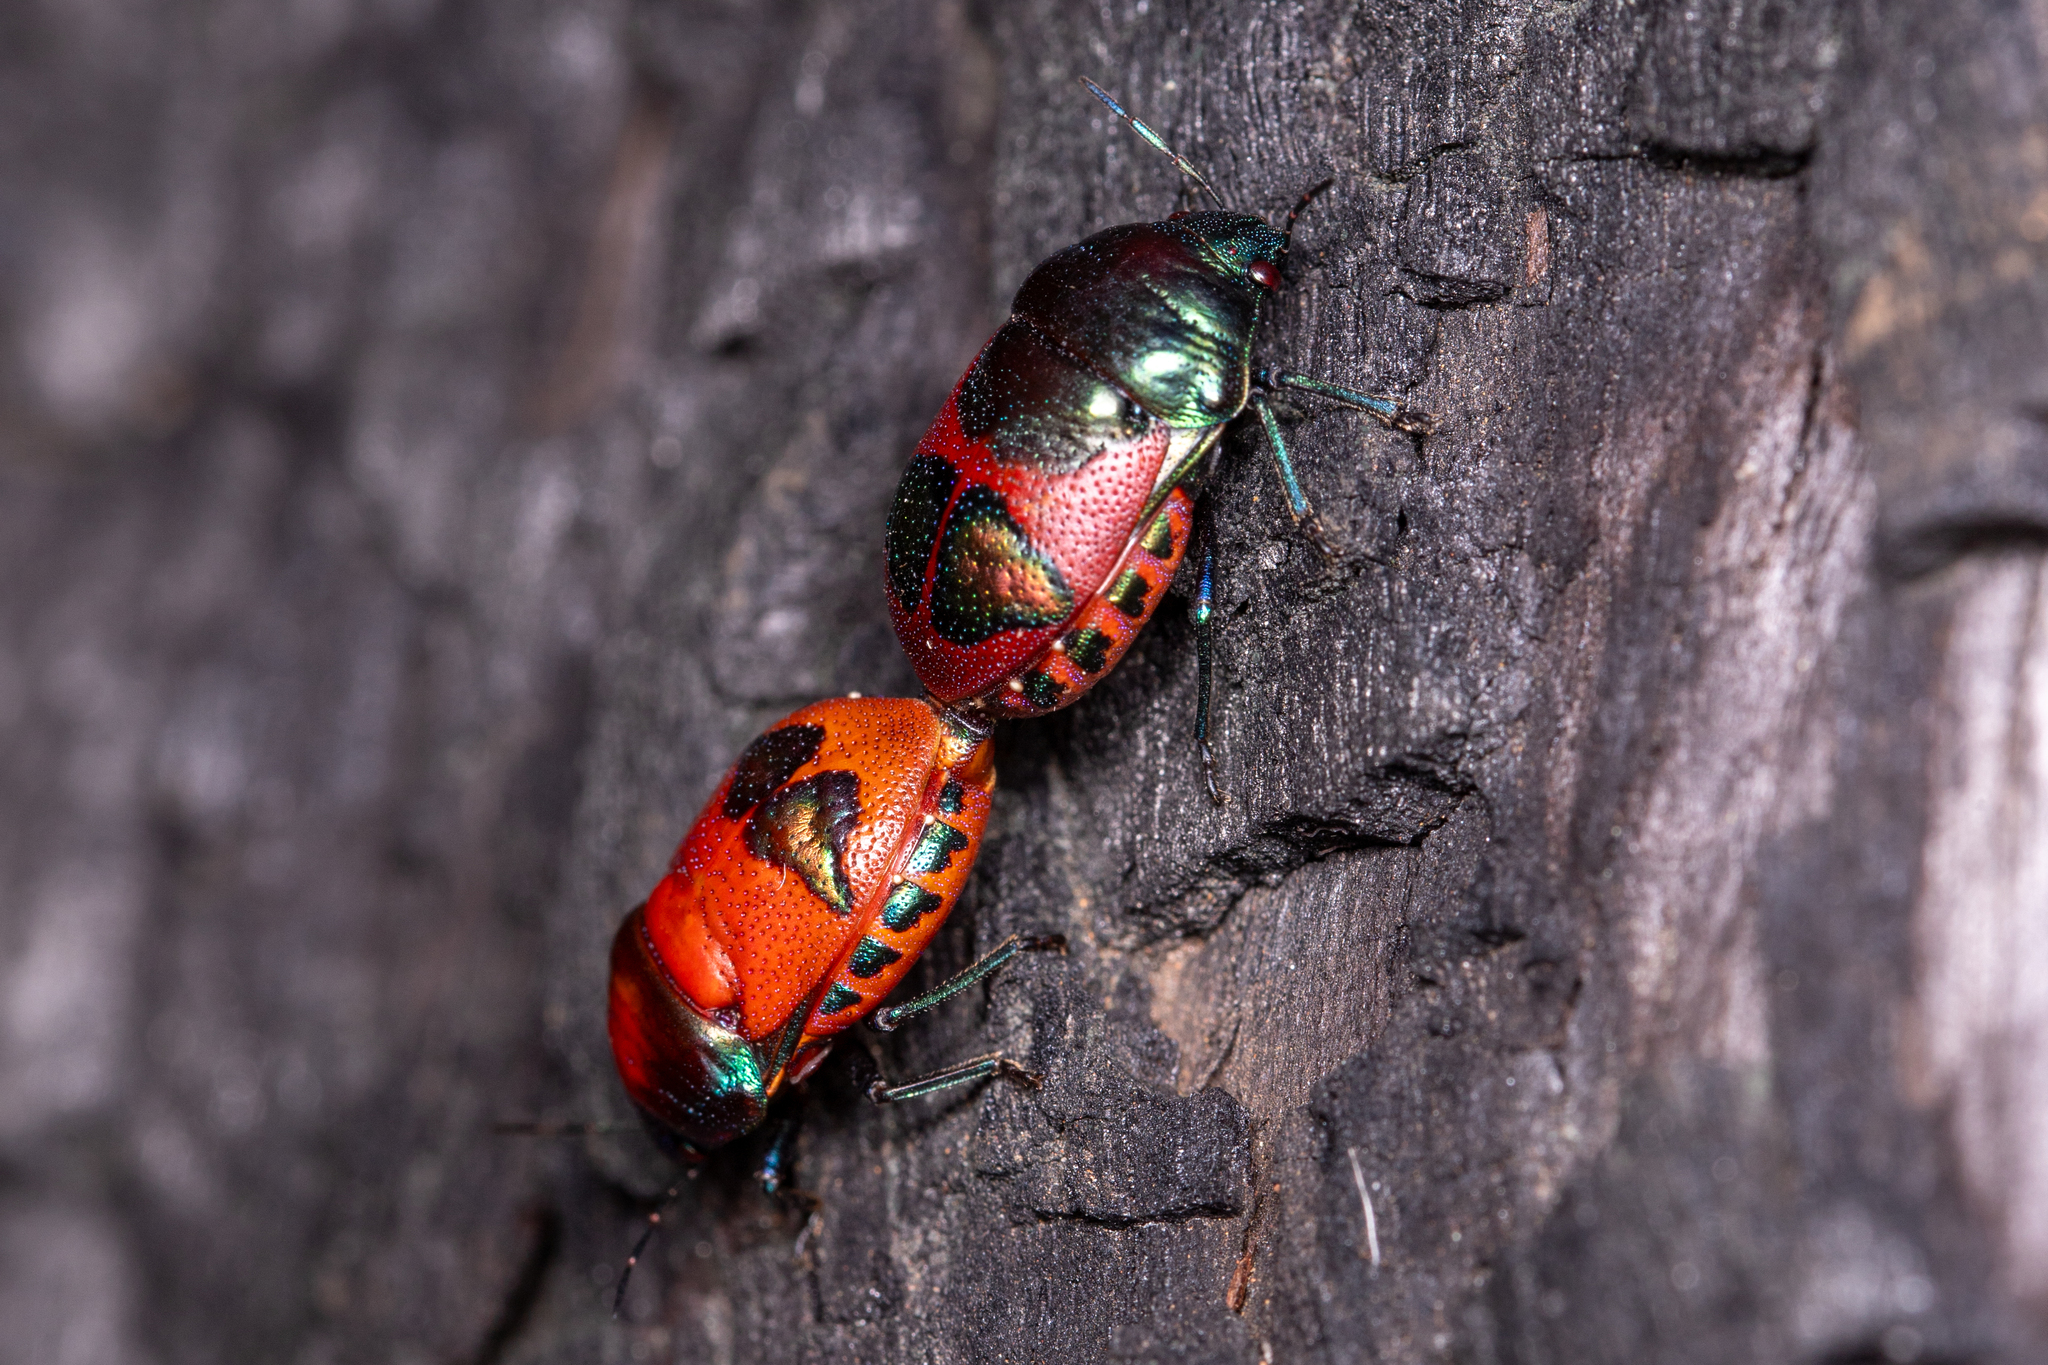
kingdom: Animalia
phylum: Arthropoda
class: Insecta
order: Hemiptera
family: Scutelleridae
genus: Choerocoris
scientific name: Choerocoris paganus
